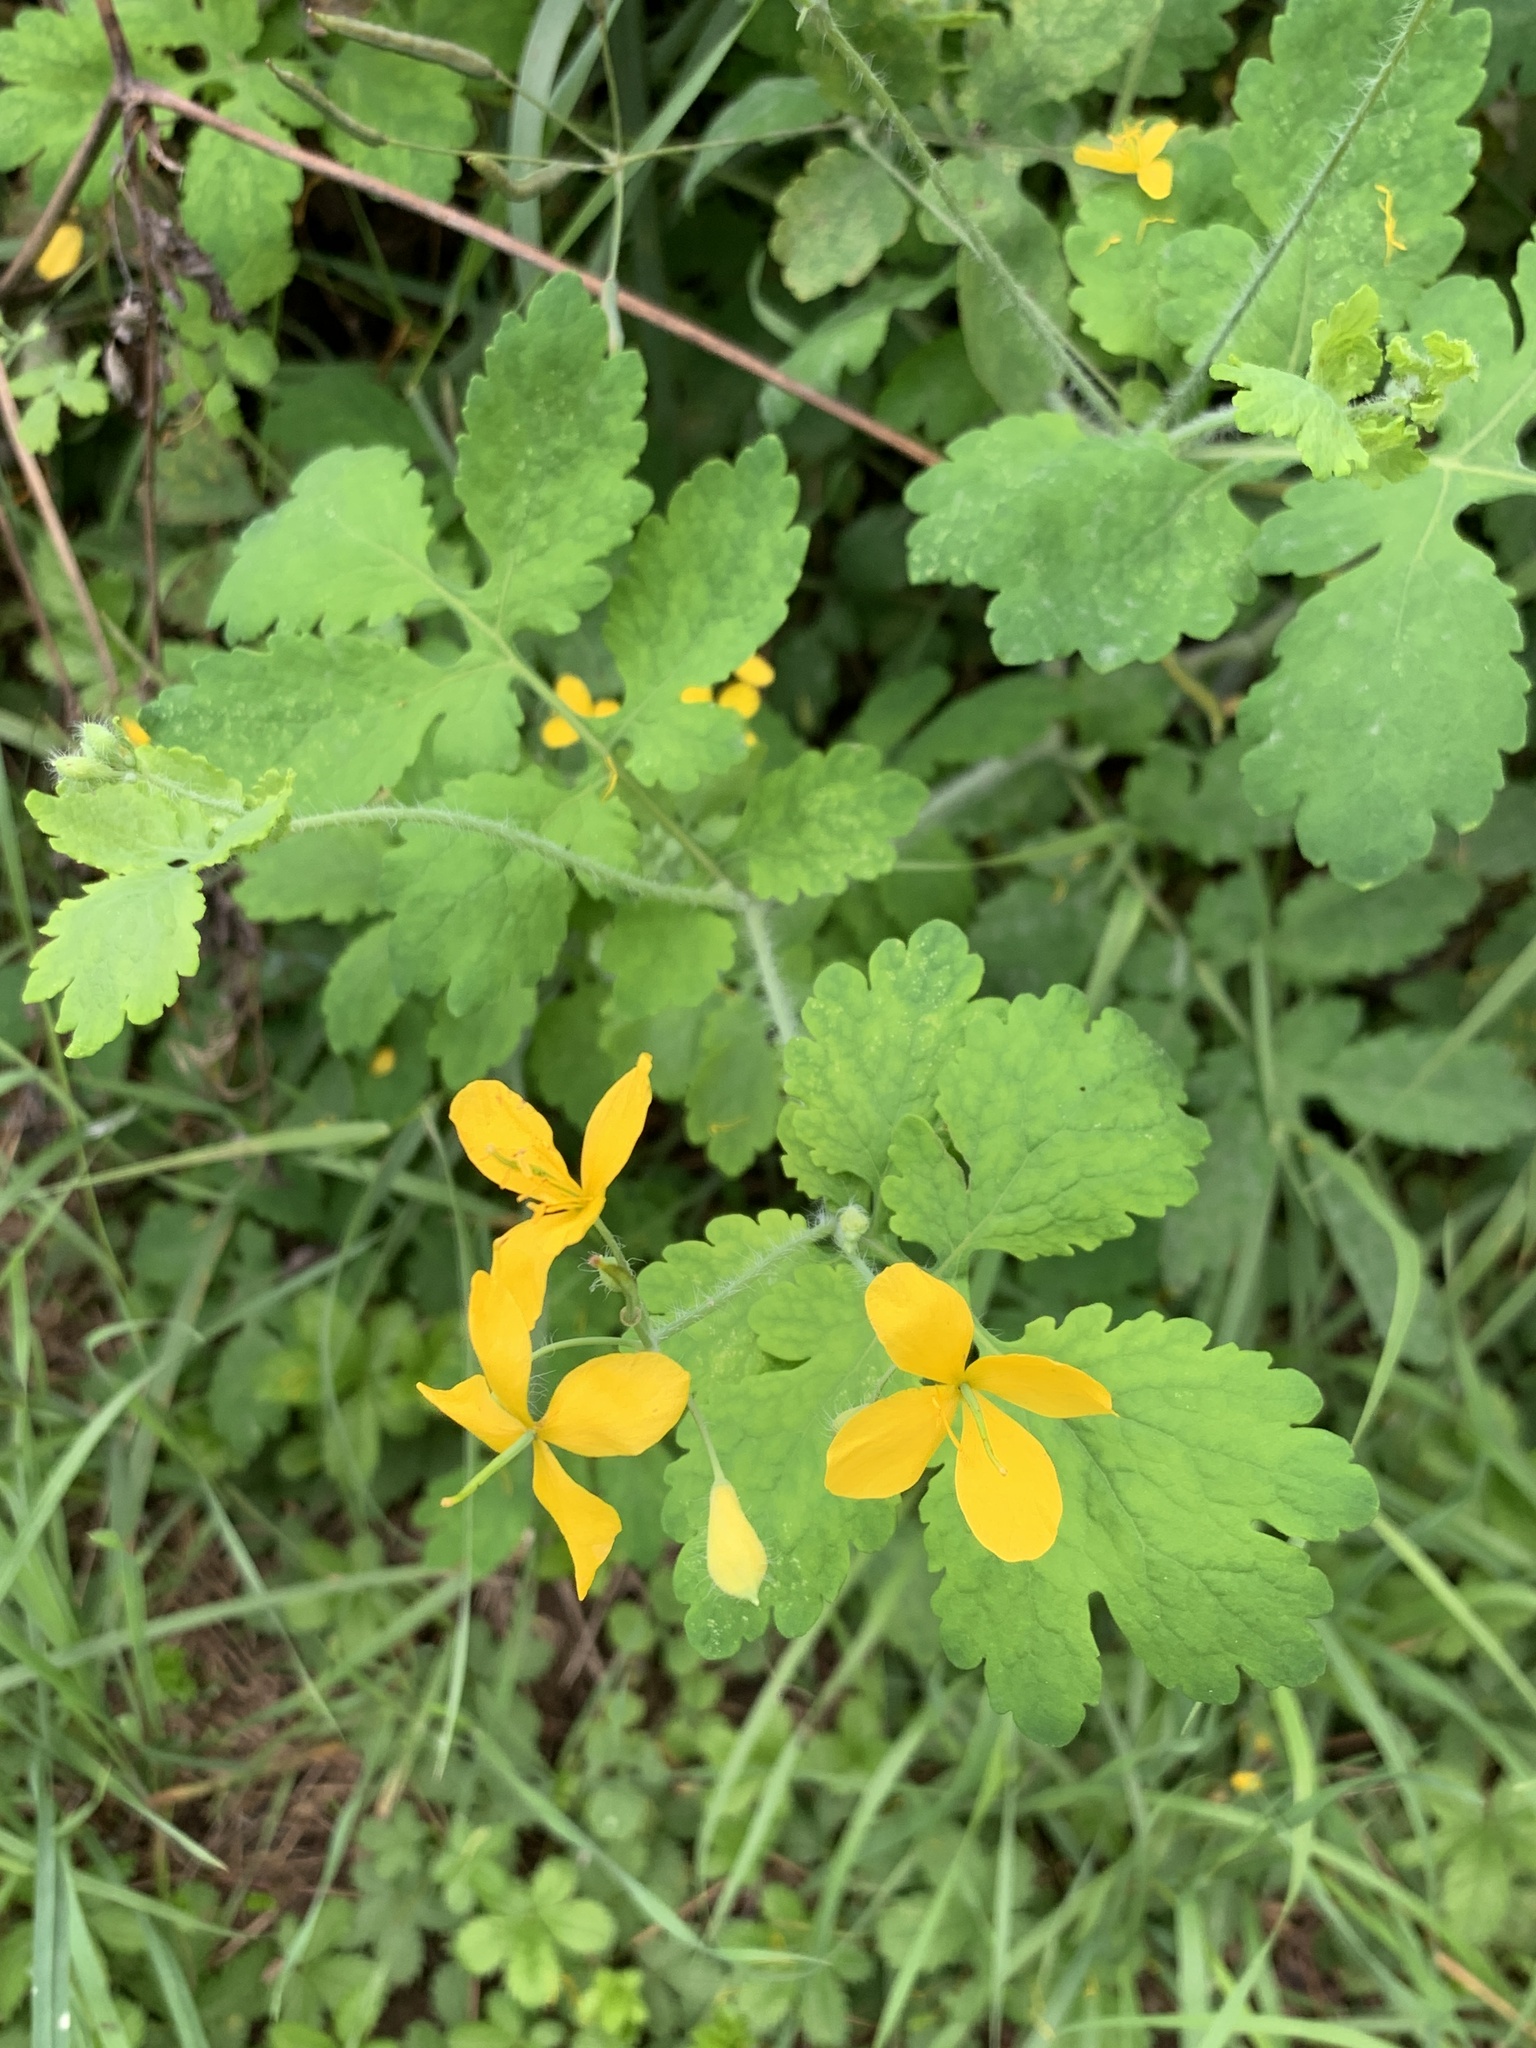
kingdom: Plantae
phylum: Tracheophyta
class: Magnoliopsida
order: Ranunculales
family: Papaveraceae
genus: Chelidonium
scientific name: Chelidonium majus
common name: Greater celandine
